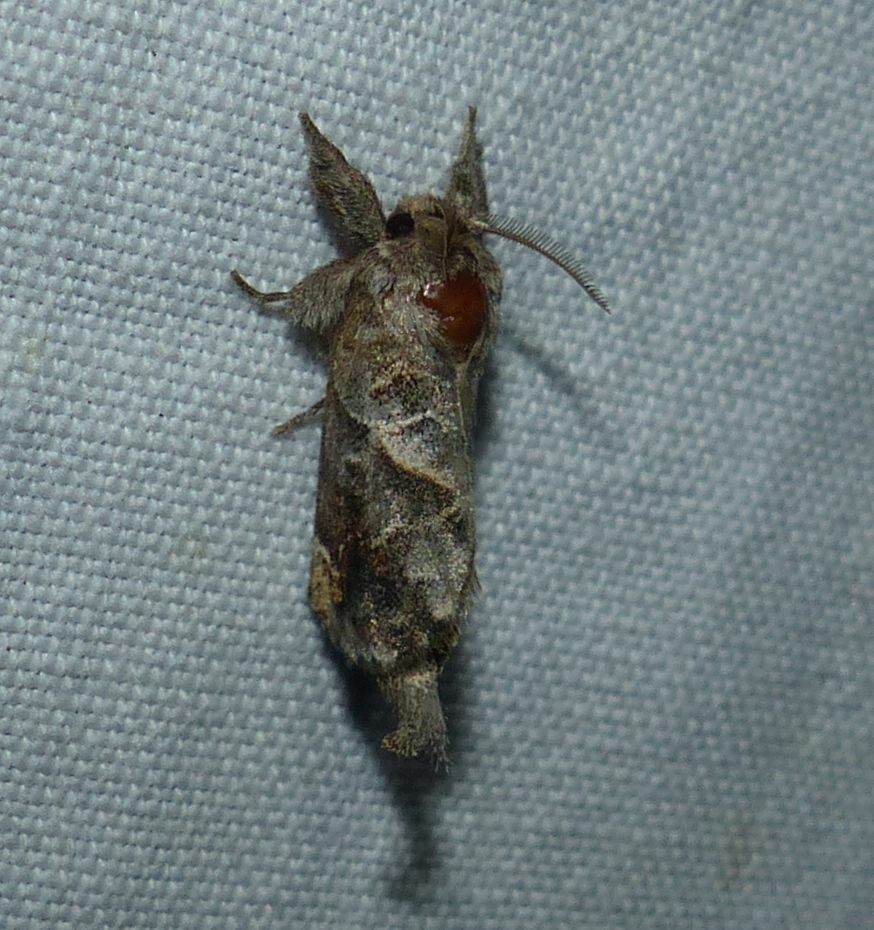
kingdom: Animalia
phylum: Arthropoda
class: Insecta
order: Lepidoptera
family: Notodontidae
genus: Clostera
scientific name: Clostera strigosa
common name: Striped chocolate-tip moth
